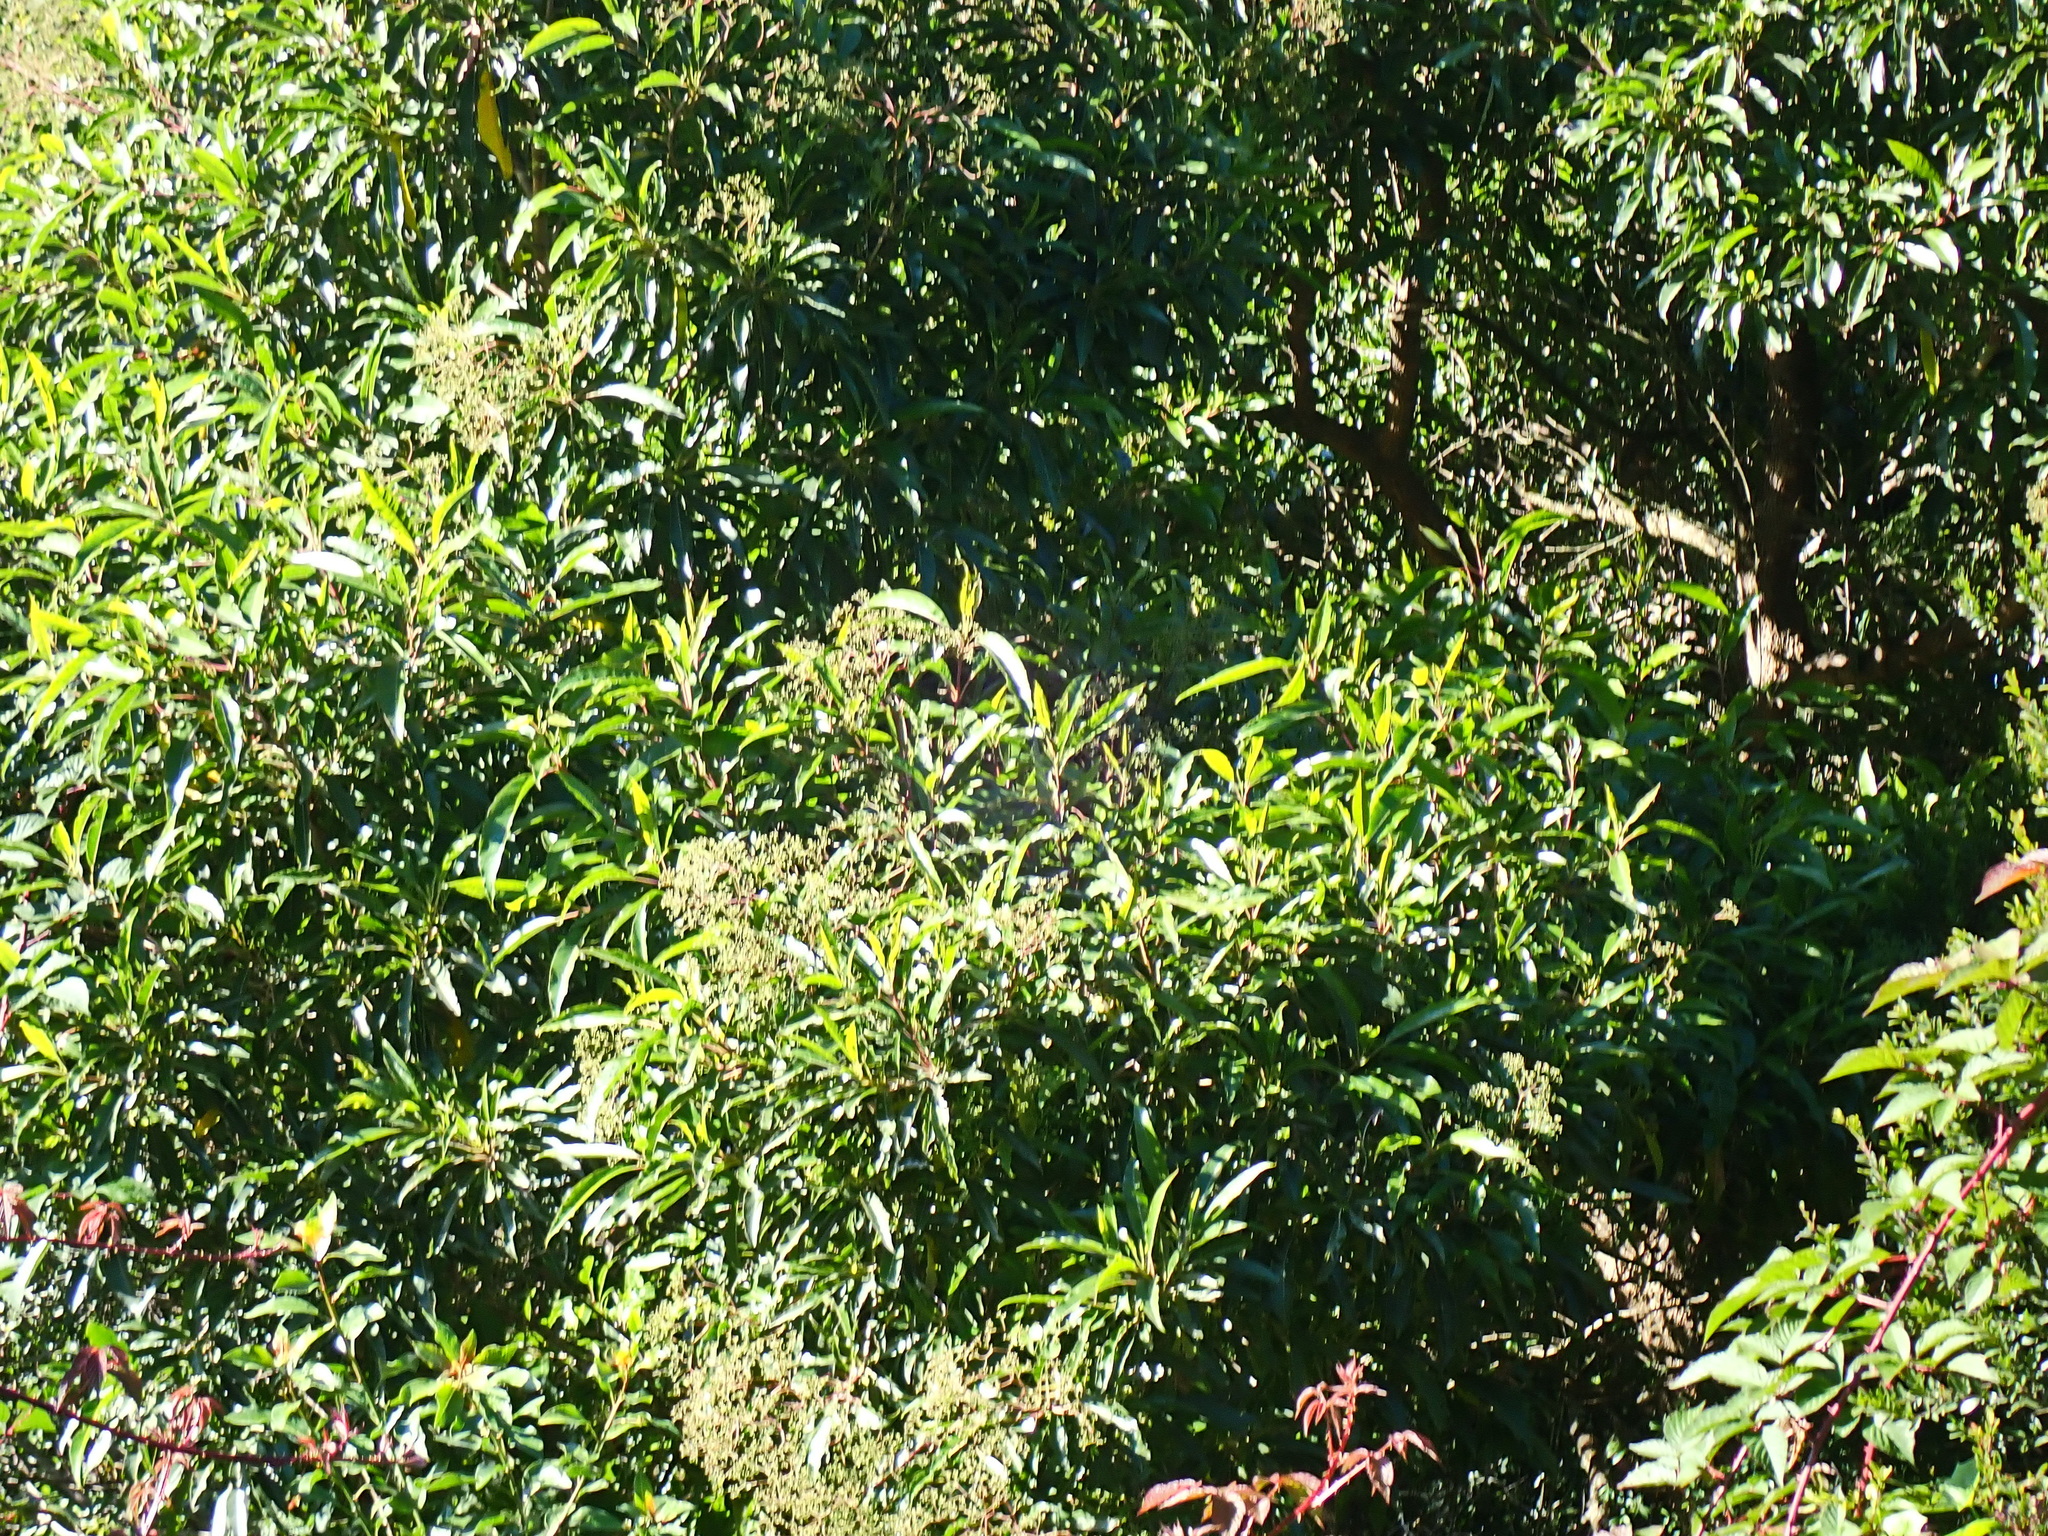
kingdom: Plantae
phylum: Tracheophyta
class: Magnoliopsida
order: Lamiales
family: Stilbaceae
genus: Nuxia
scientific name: Nuxia floribunda
